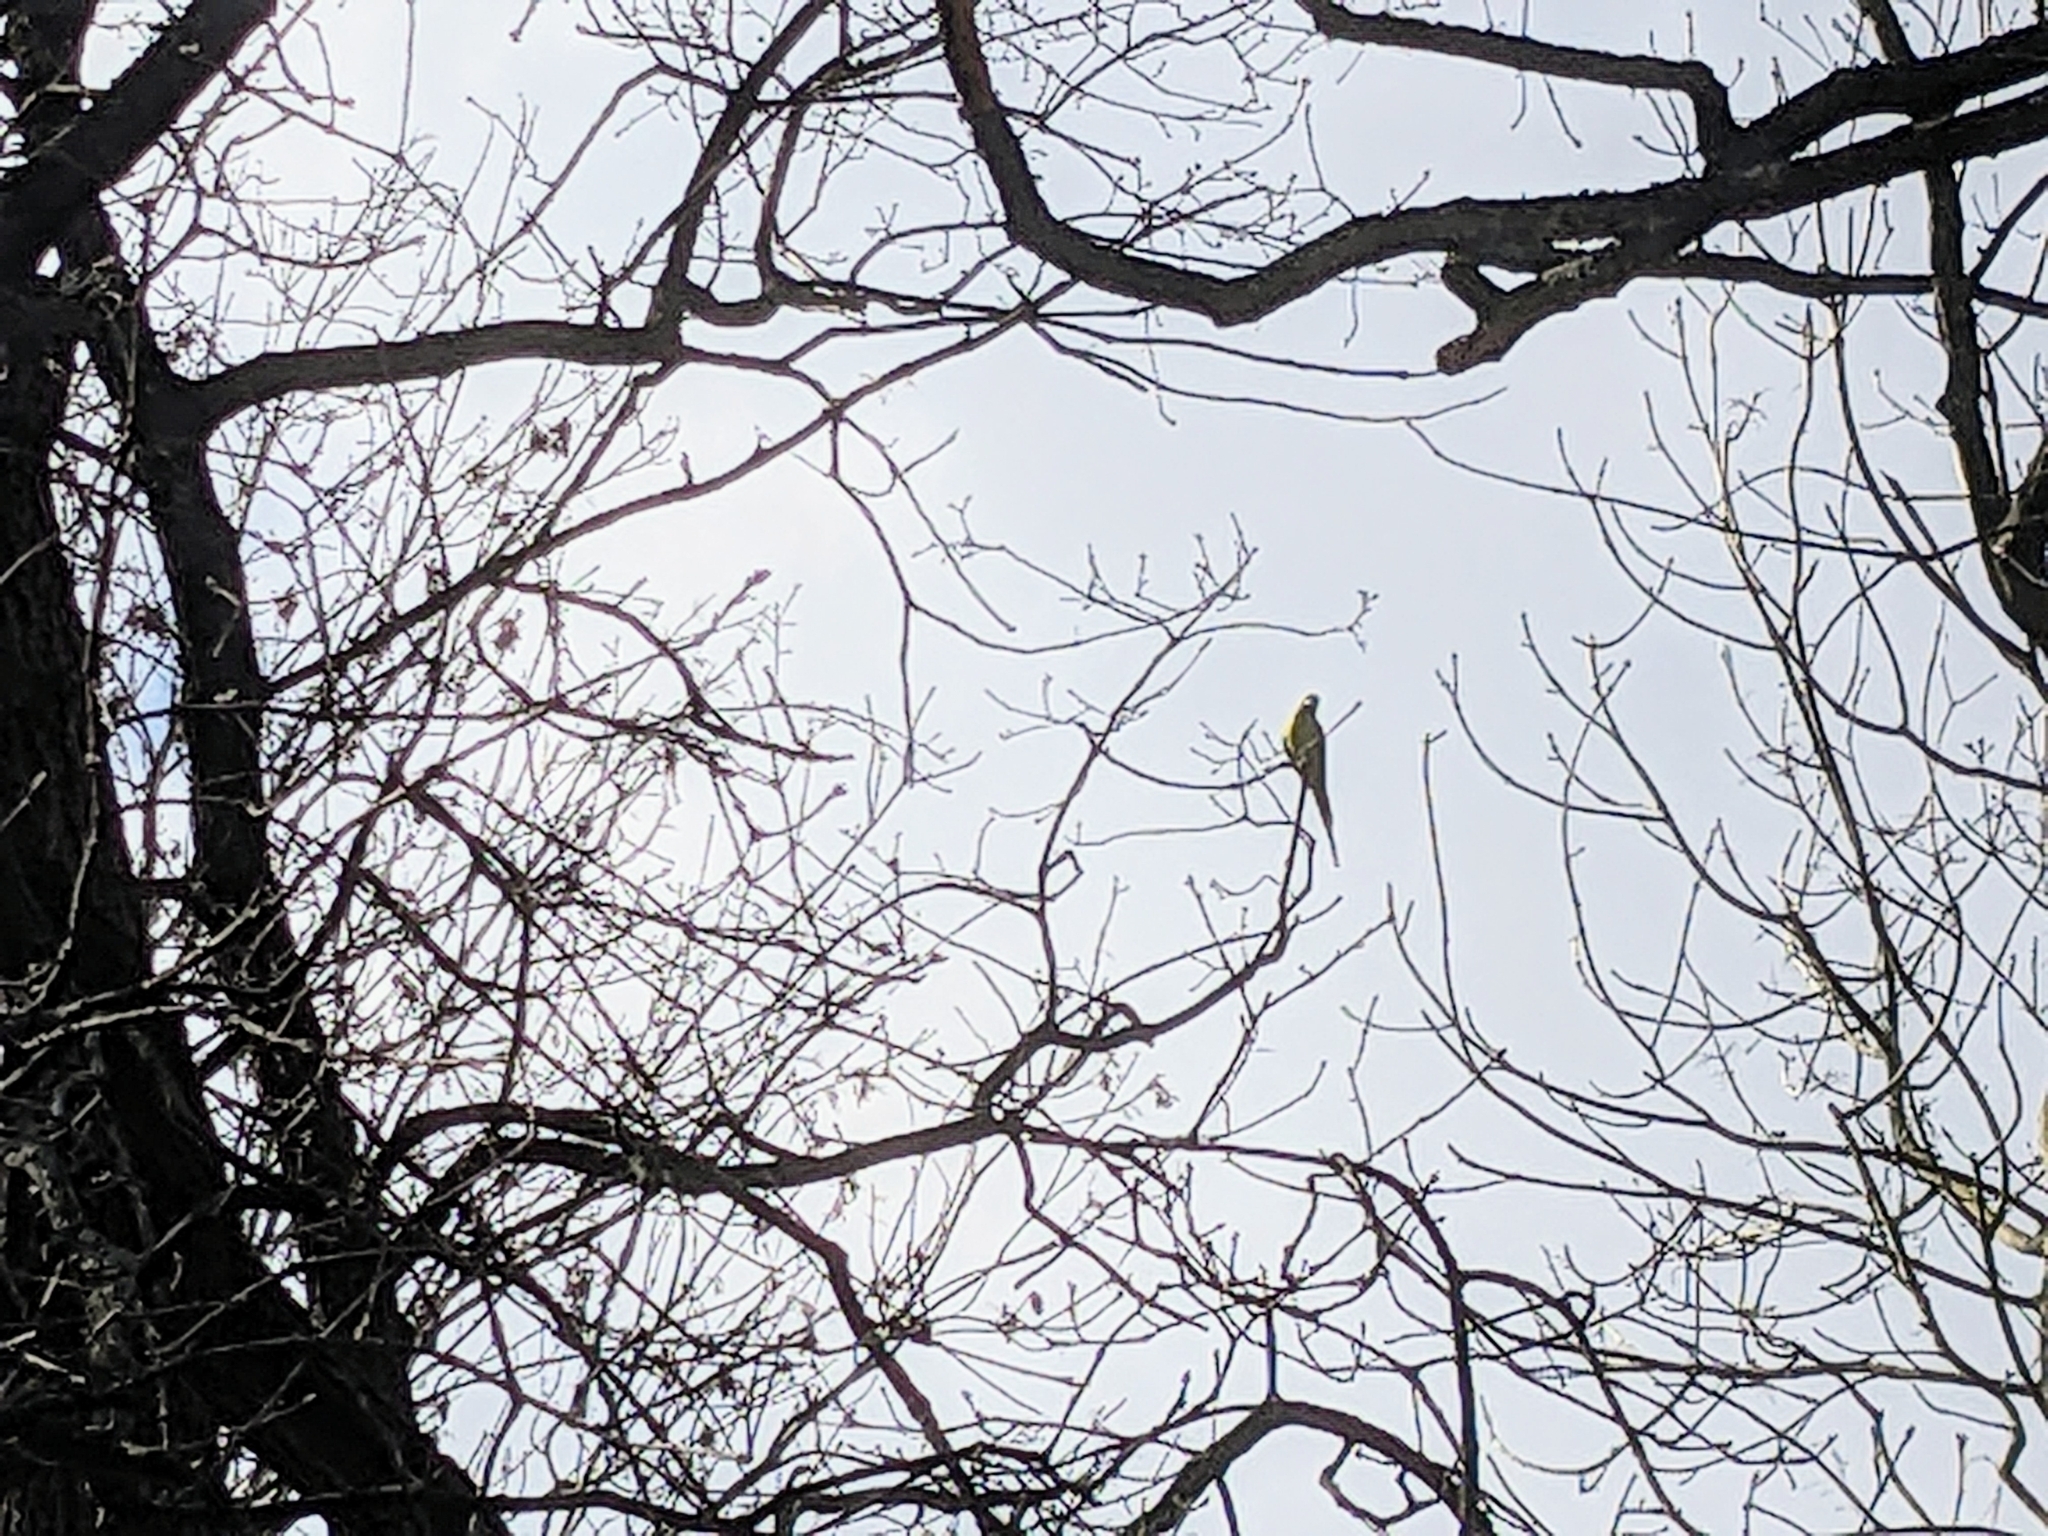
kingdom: Animalia
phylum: Chordata
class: Aves
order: Psittaciformes
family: Psittacidae
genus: Psittacula
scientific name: Psittacula krameri
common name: Rose-ringed parakeet
